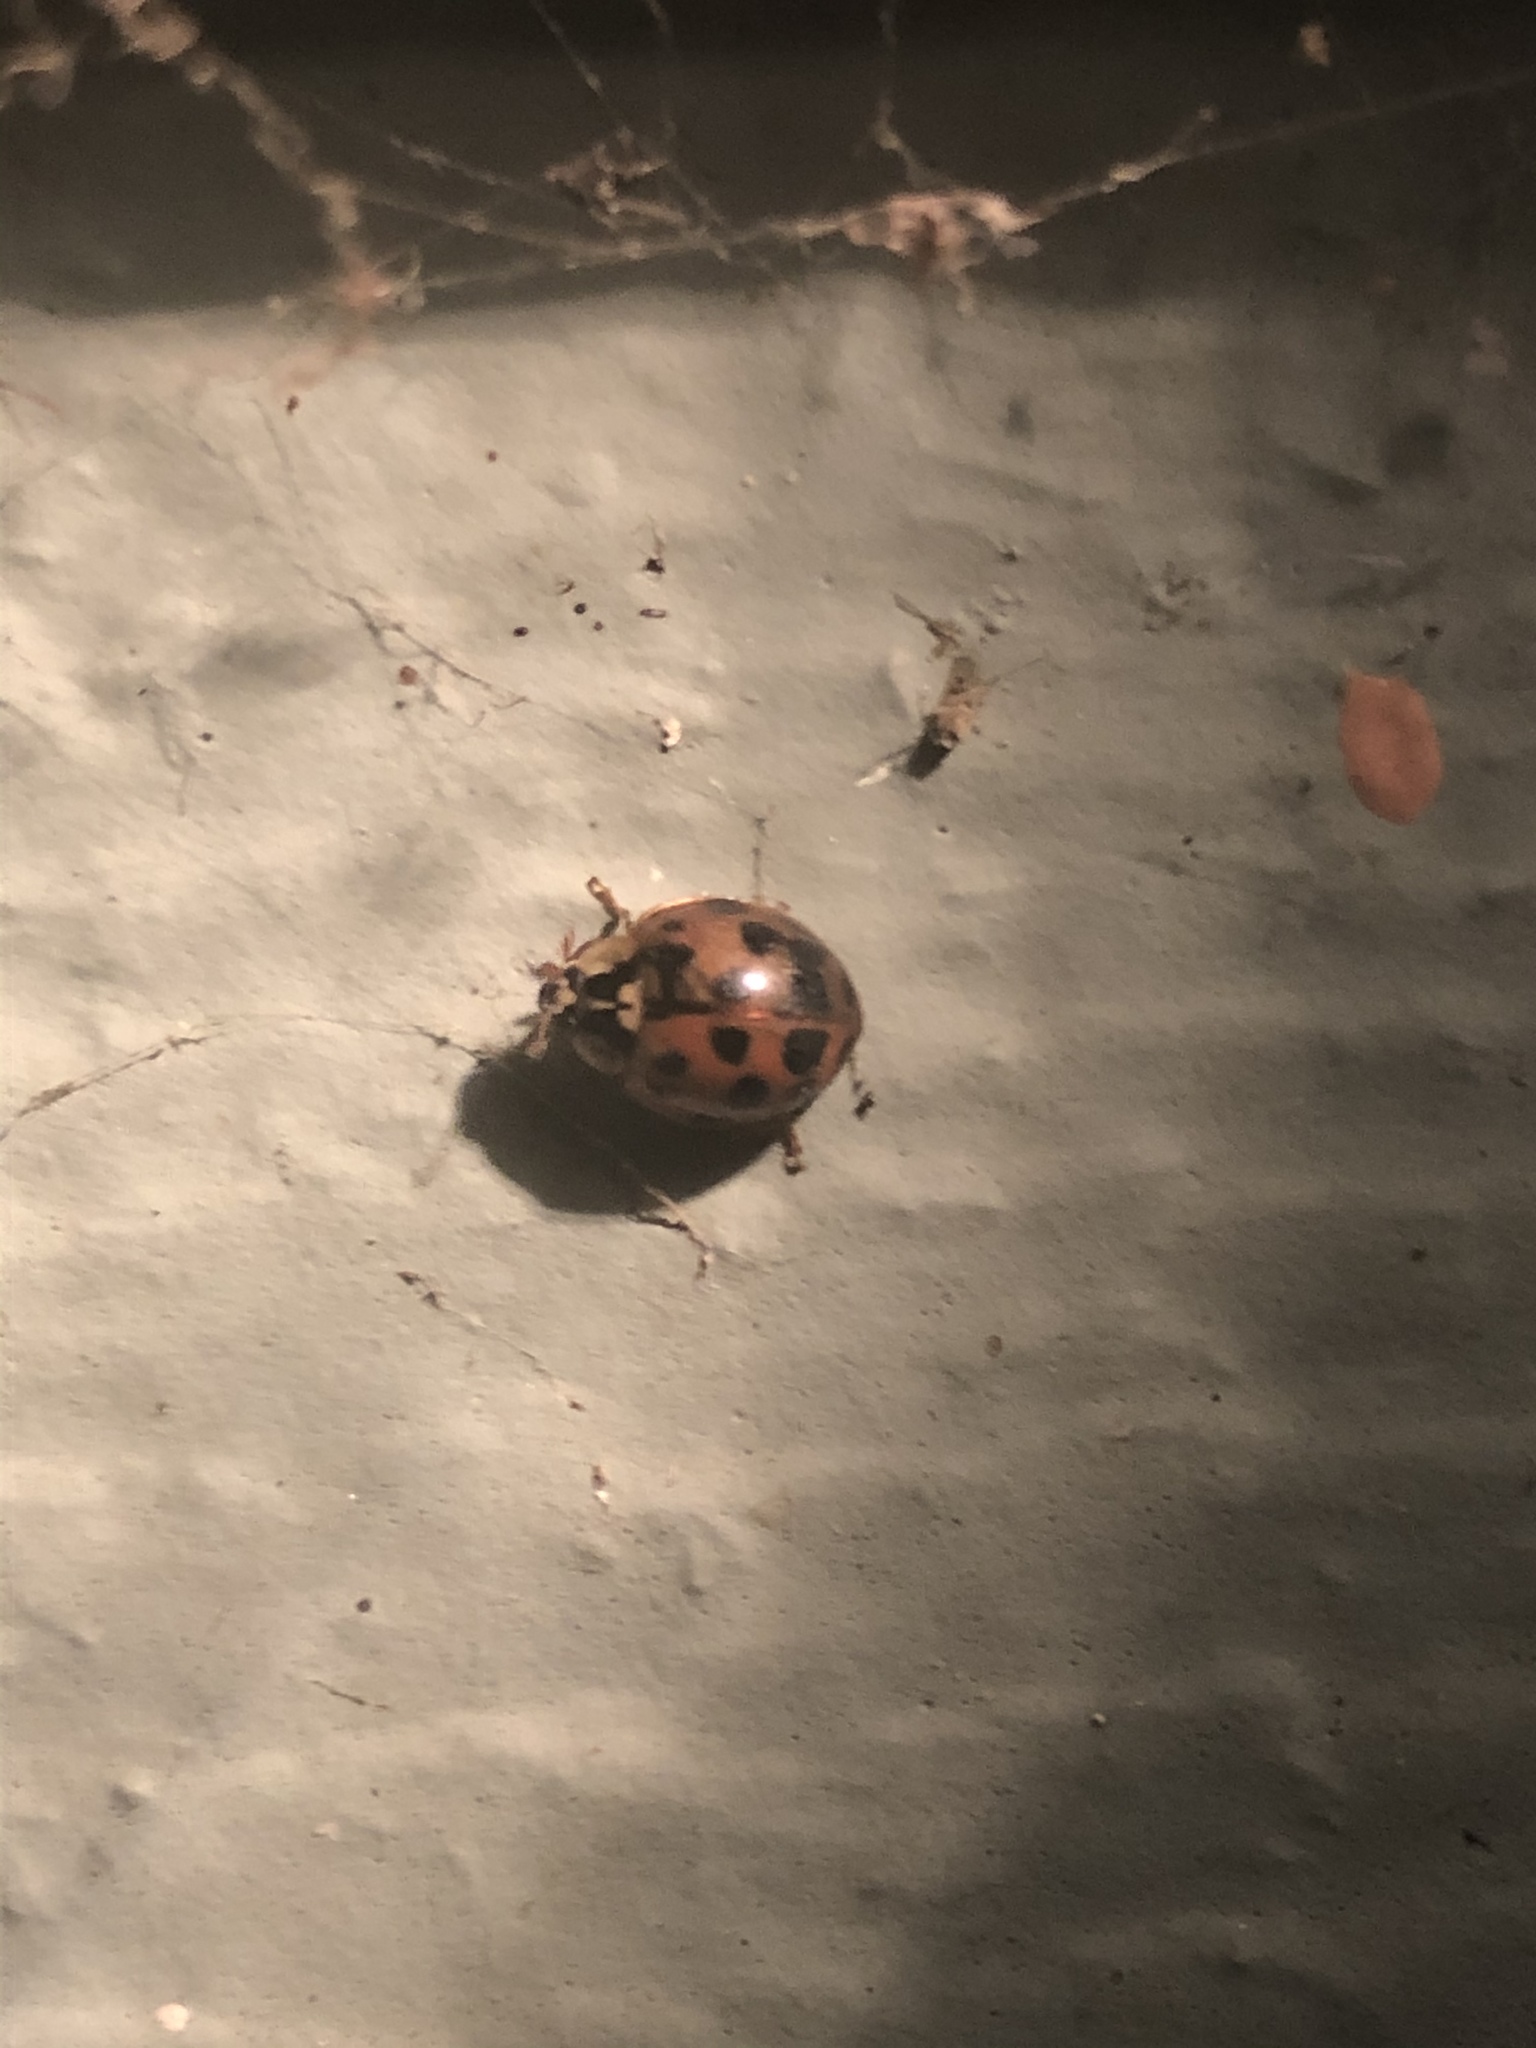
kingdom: Animalia
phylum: Arthropoda
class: Insecta
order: Coleoptera
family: Coccinellidae
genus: Harmonia
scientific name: Harmonia axyridis
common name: Harlequin ladybird
